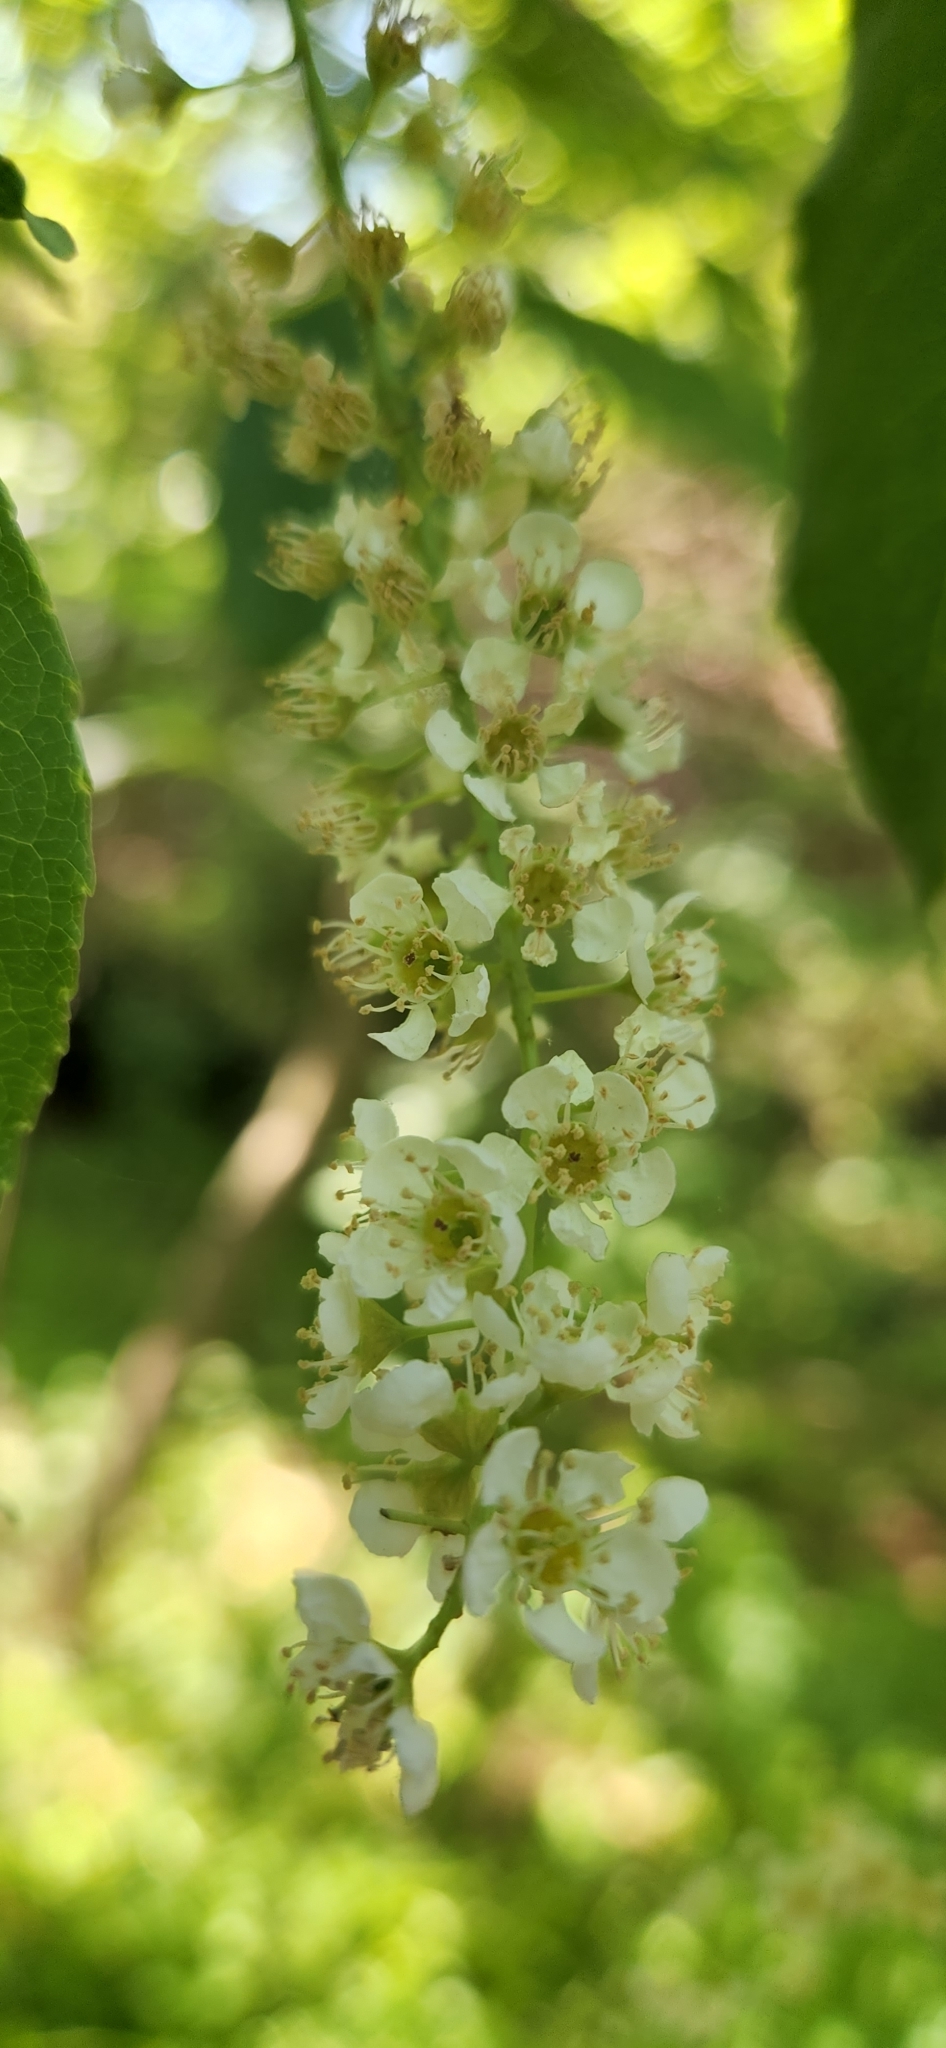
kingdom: Plantae
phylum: Tracheophyta
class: Magnoliopsida
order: Rosales
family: Rosaceae
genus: Prunus
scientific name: Prunus serotina
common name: Black cherry
